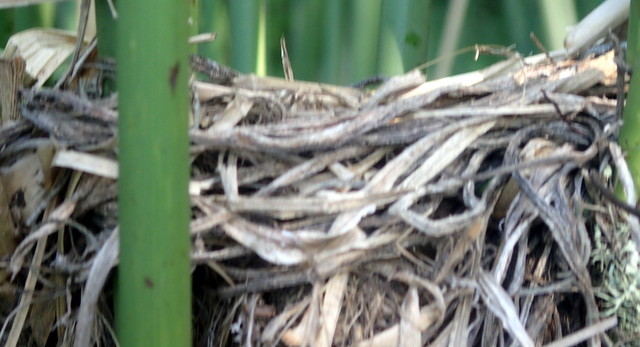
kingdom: Animalia
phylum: Chordata
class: Aves
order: Passeriformes
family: Icteridae
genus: Agelaius
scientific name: Agelaius phoeniceus
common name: Red-winged blackbird
